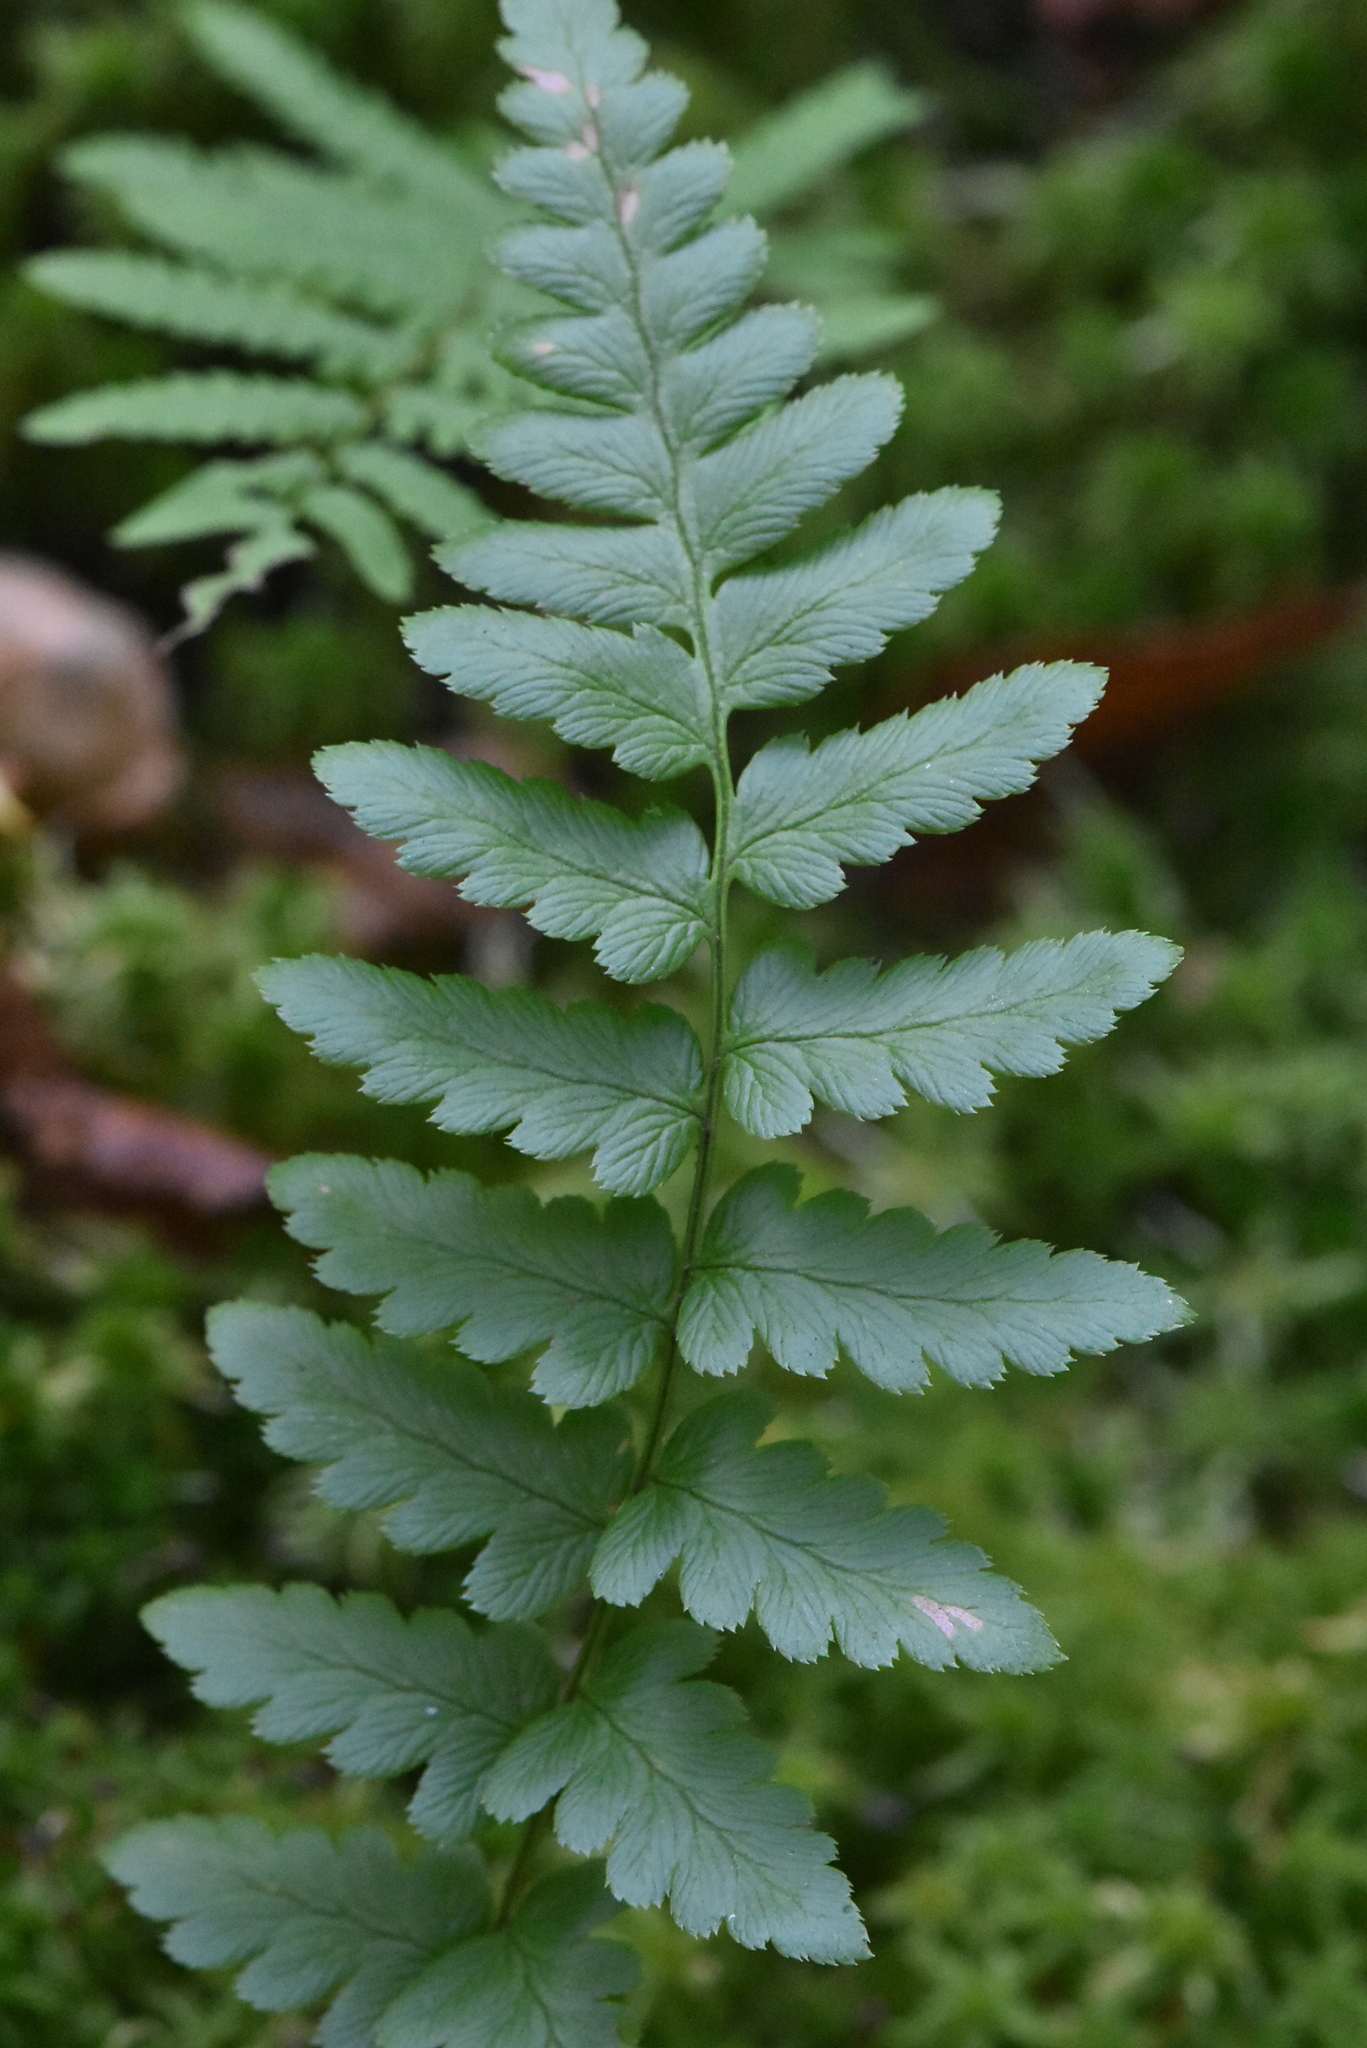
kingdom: Plantae
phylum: Tracheophyta
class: Polypodiopsida
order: Polypodiales
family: Dryopteridaceae
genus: Dryopteris
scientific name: Dryopteris cristata
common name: Crested wood fern
